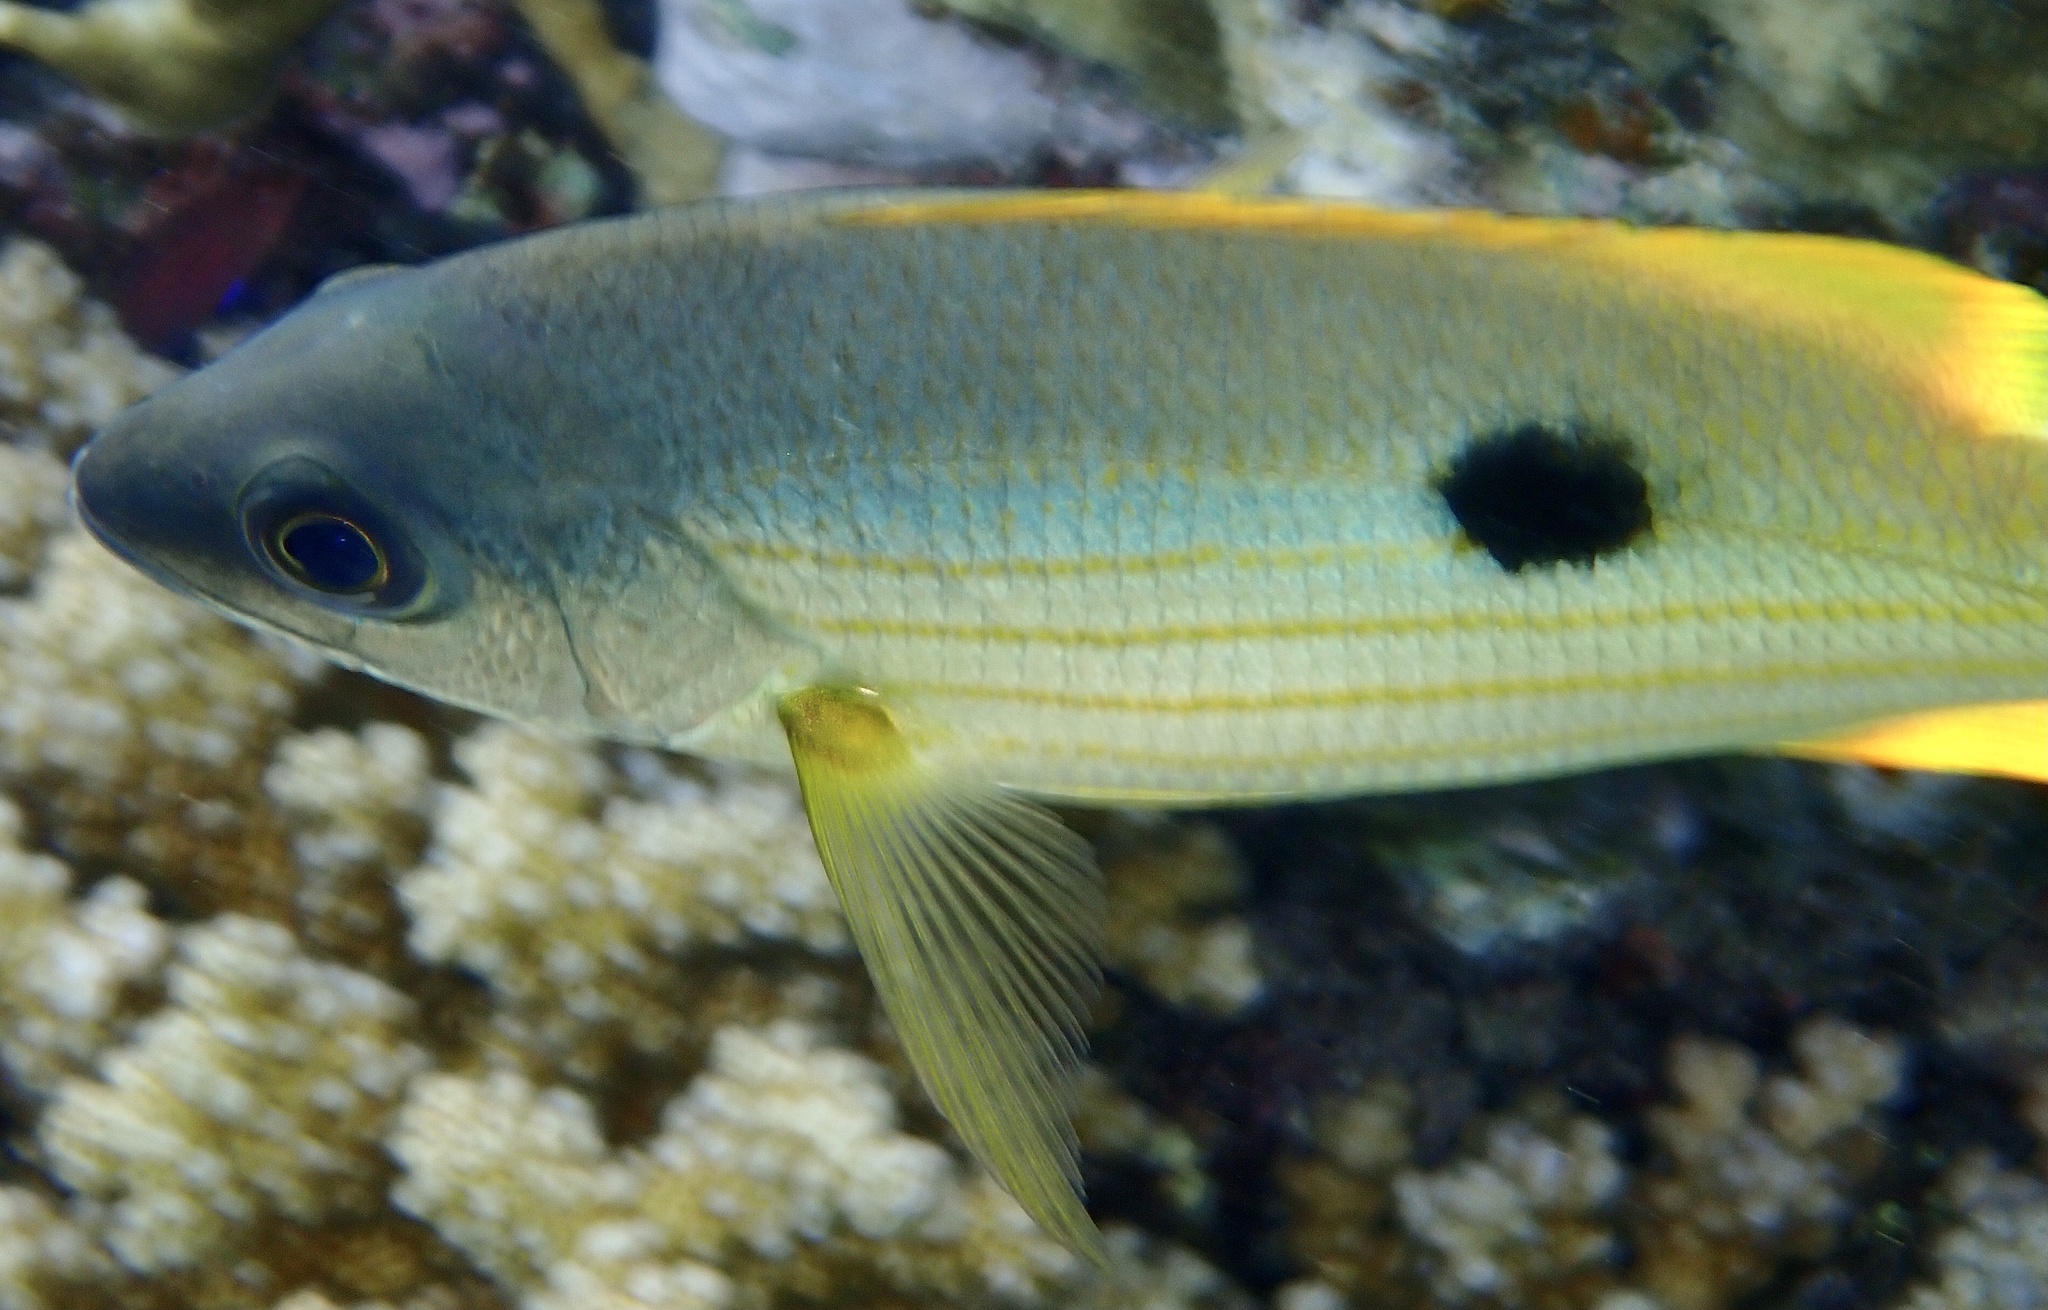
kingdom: Animalia
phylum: Chordata
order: Perciformes
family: Lutjanidae
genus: Lutjanus
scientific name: Lutjanus ehrenbergii
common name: Blackspot snapper
